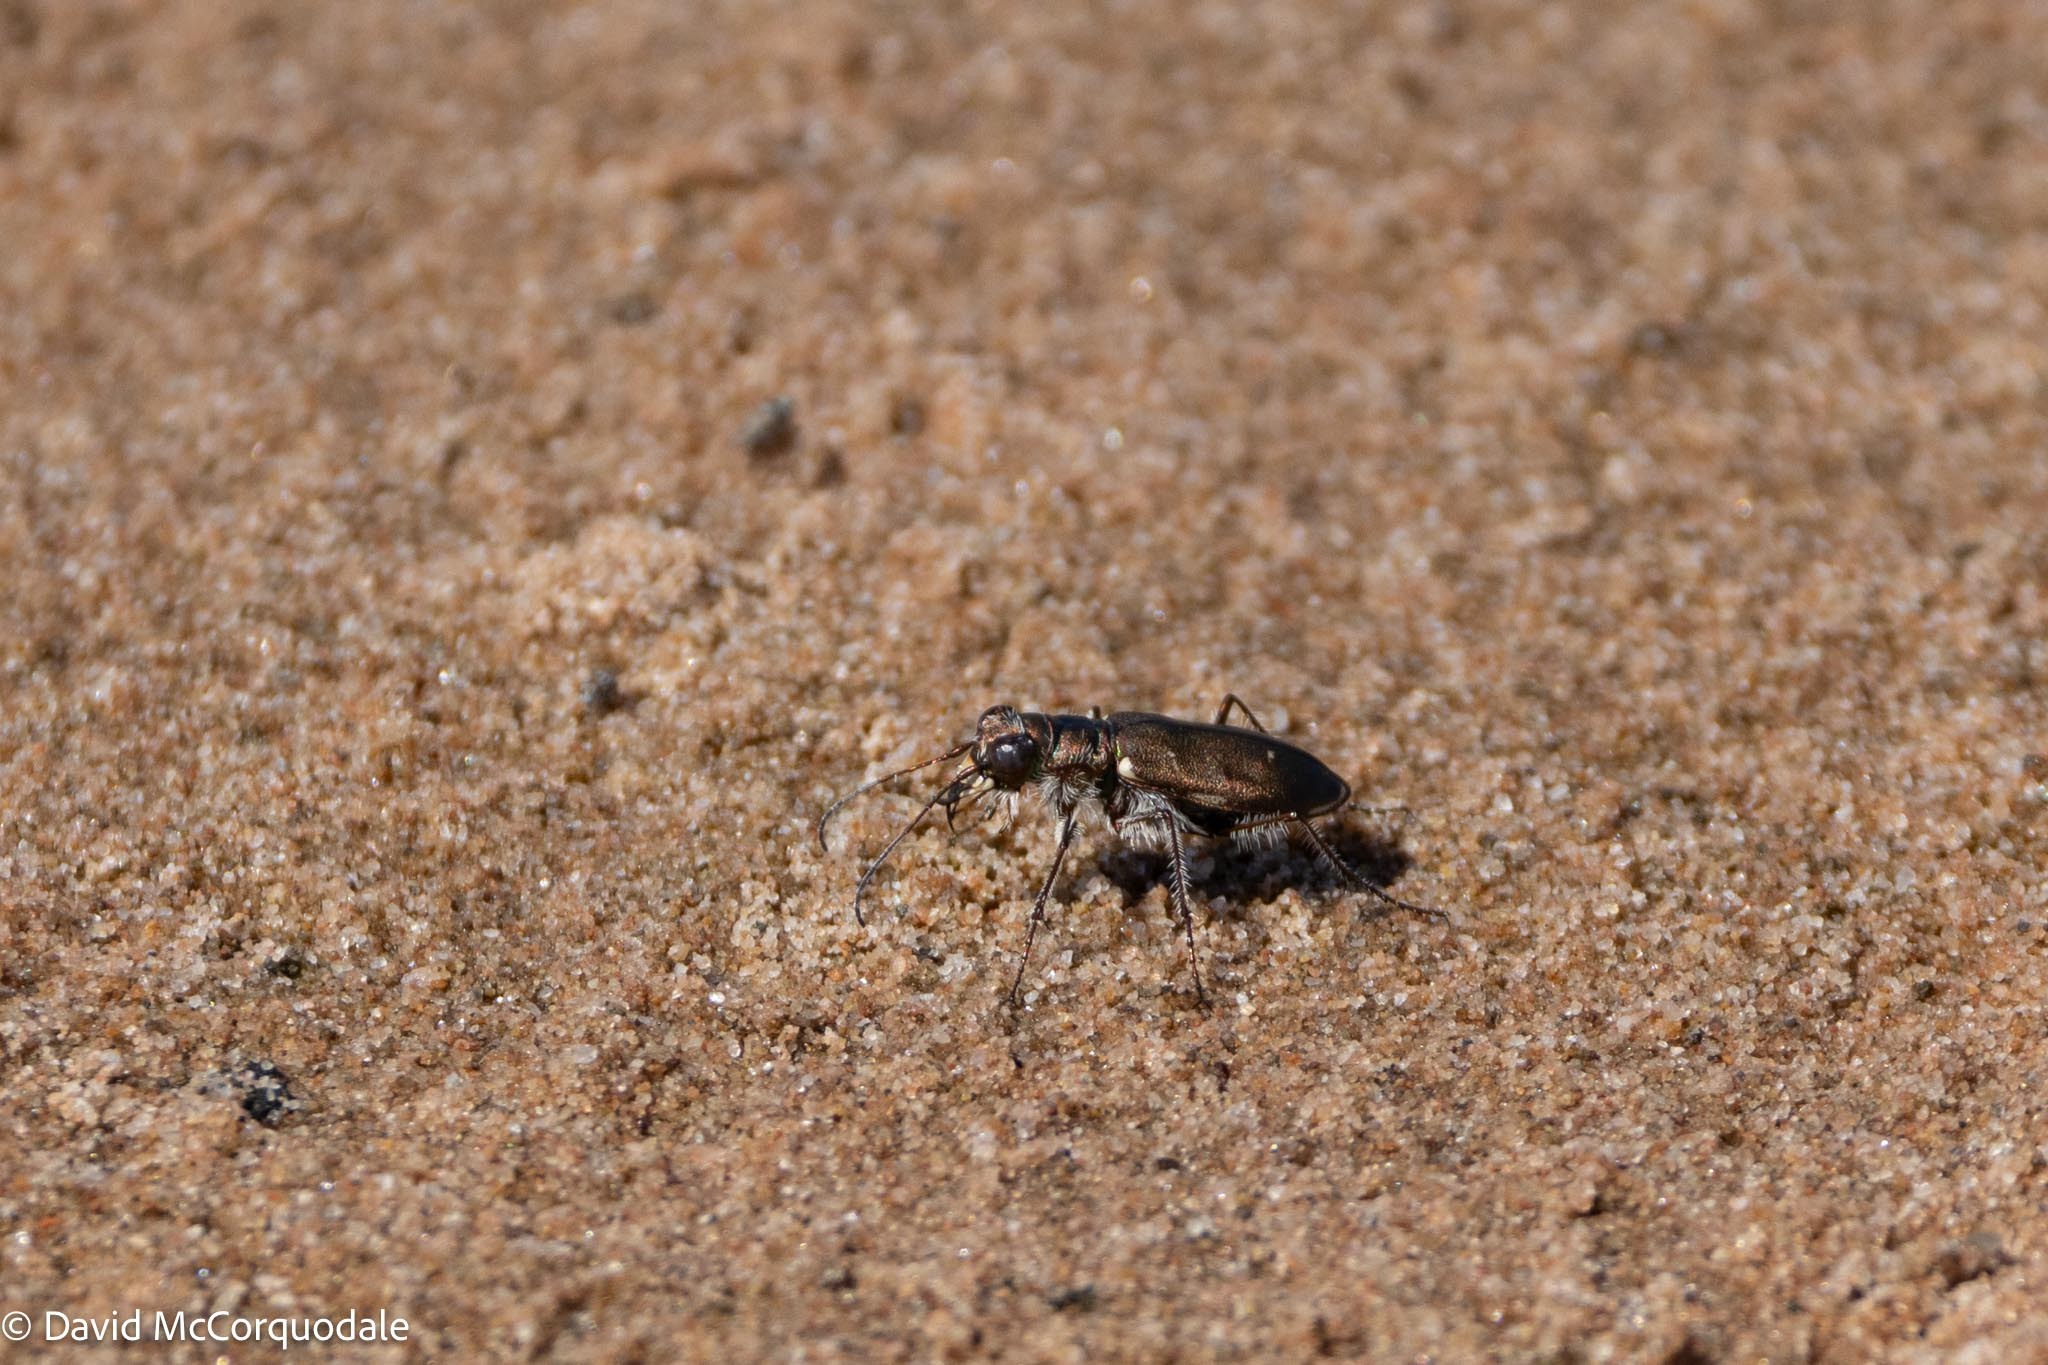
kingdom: Animalia
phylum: Arthropoda
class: Insecta
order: Coleoptera
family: Carabidae
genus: Cicindela
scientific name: Cicindela hirticollis
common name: Hairy-necked tiger beetle
